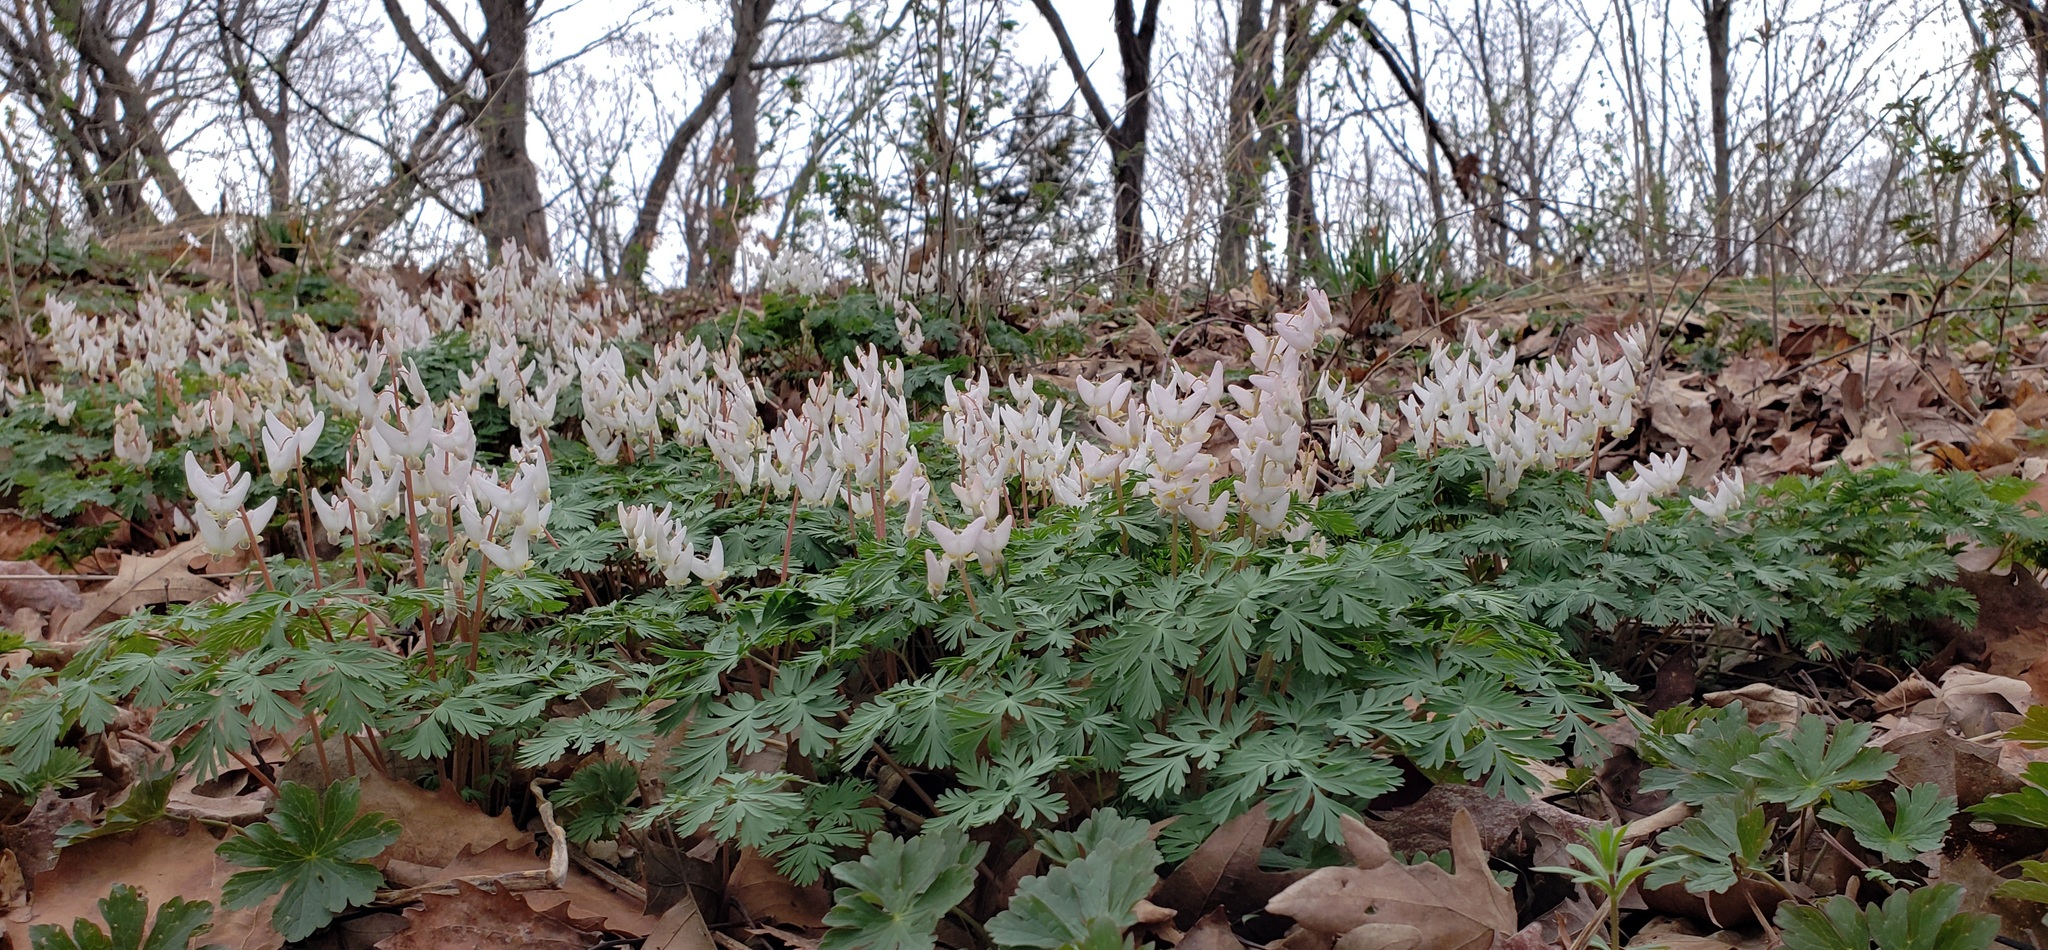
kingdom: Plantae
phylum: Tracheophyta
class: Magnoliopsida
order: Ranunculales
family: Papaveraceae
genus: Dicentra
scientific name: Dicentra cucullaria
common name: Dutchman's breeches
